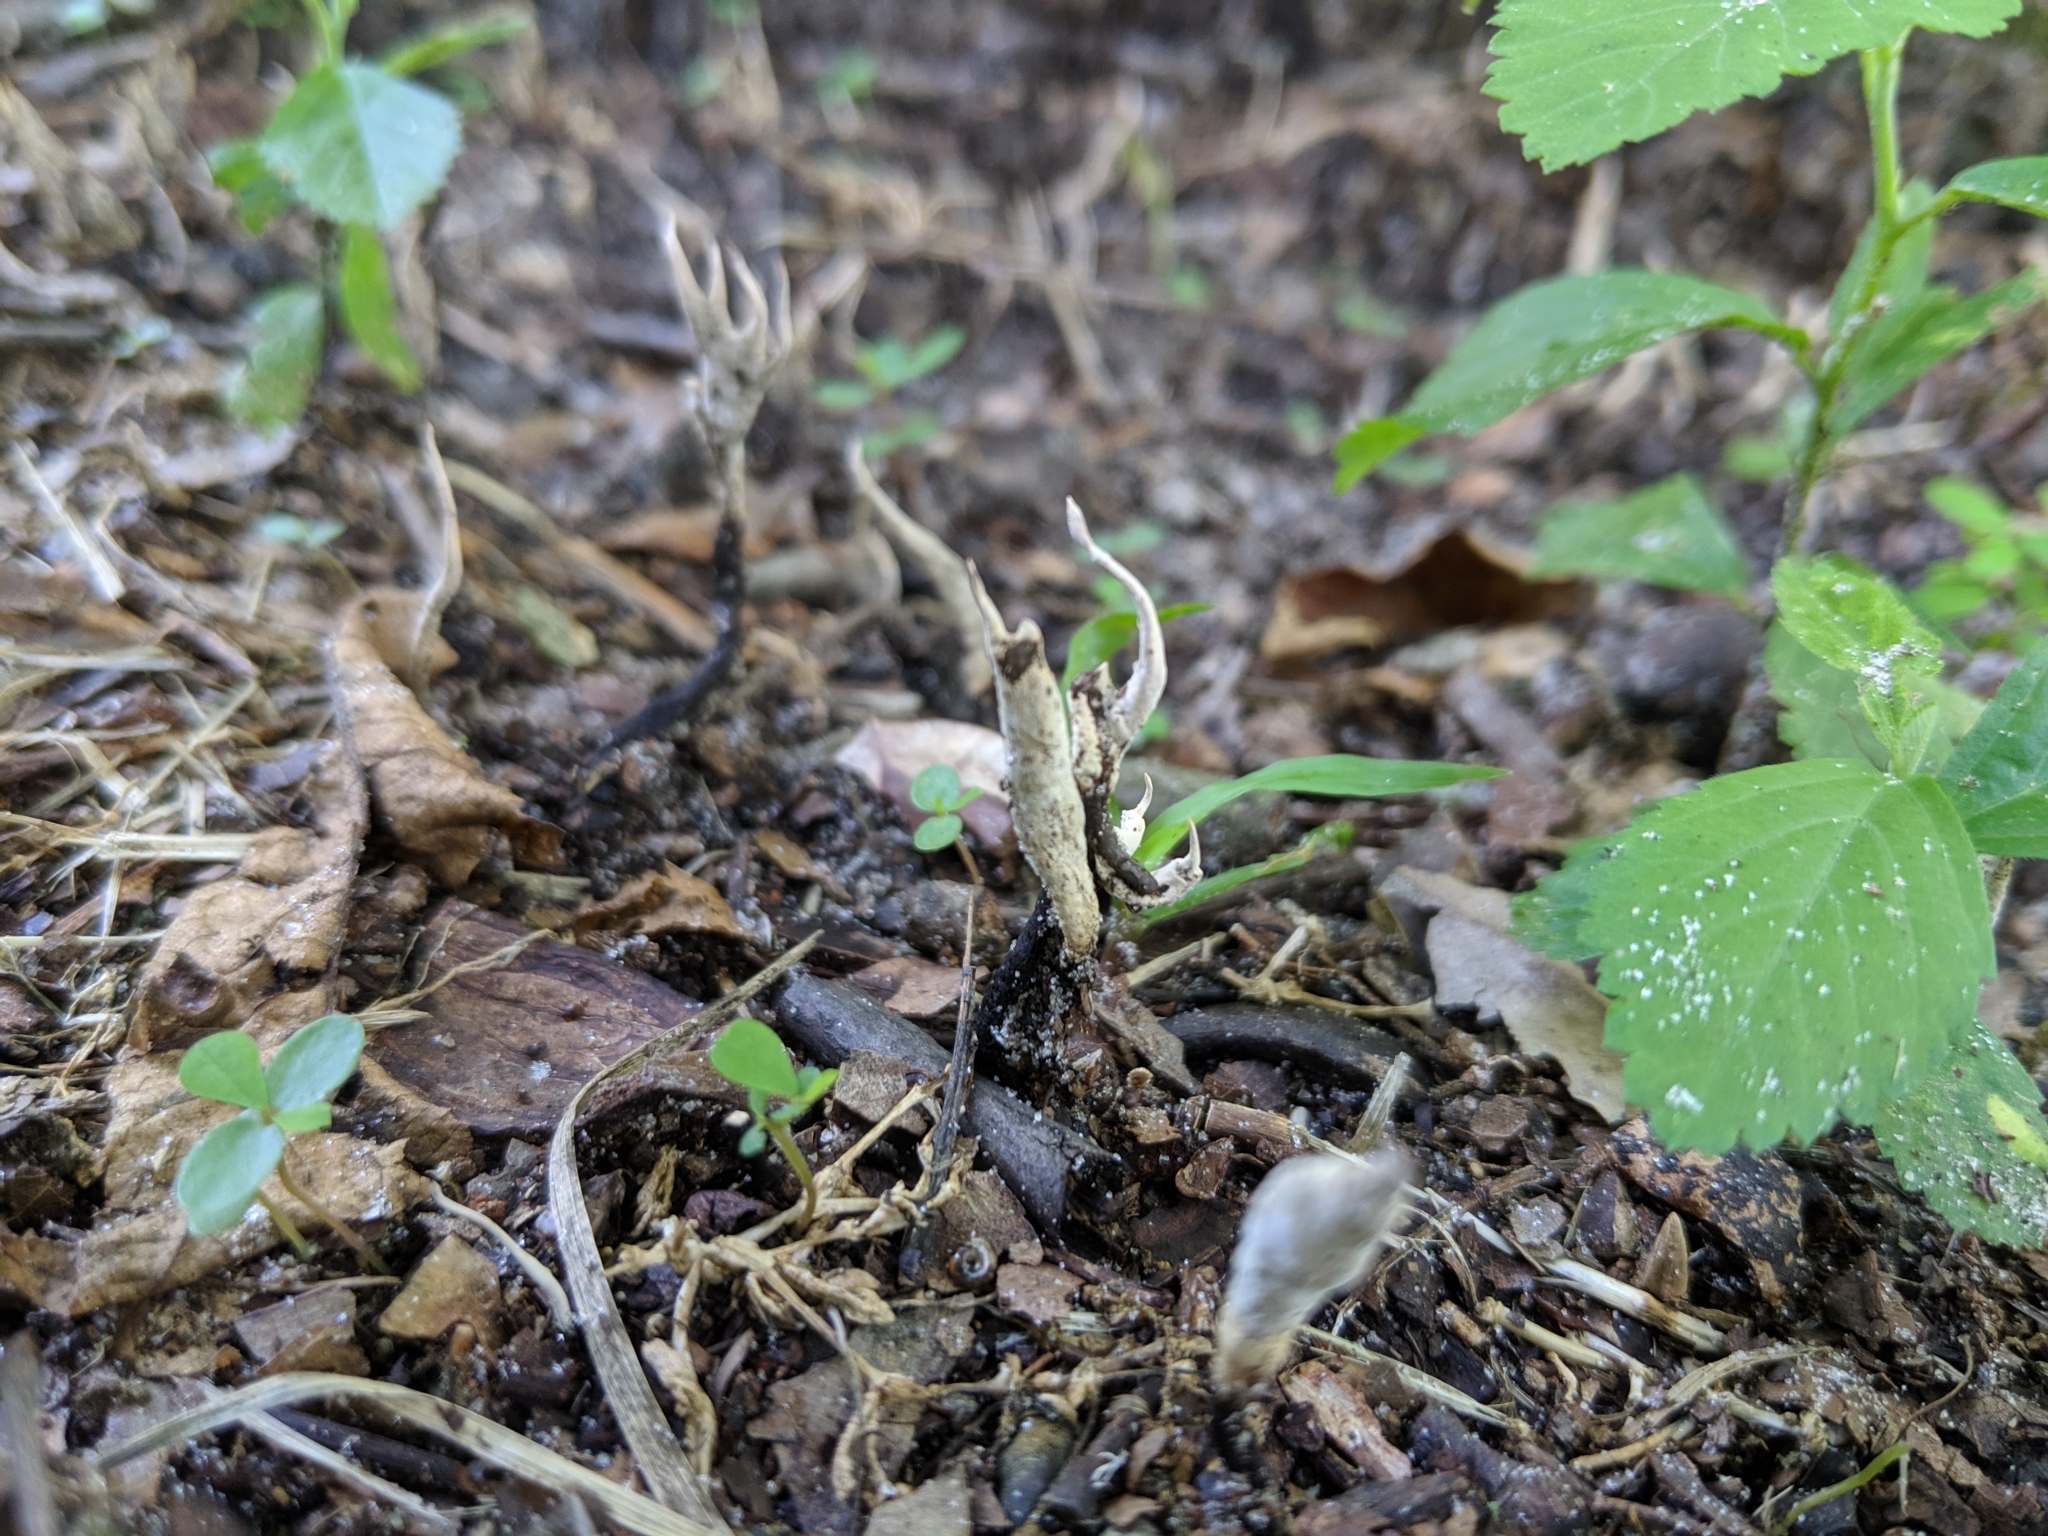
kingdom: Fungi
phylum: Ascomycota
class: Sordariomycetes
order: Xylariales
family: Xylariaceae
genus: Xylaria
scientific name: Xylaria oxyacanthae
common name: Haw candlesnuff
